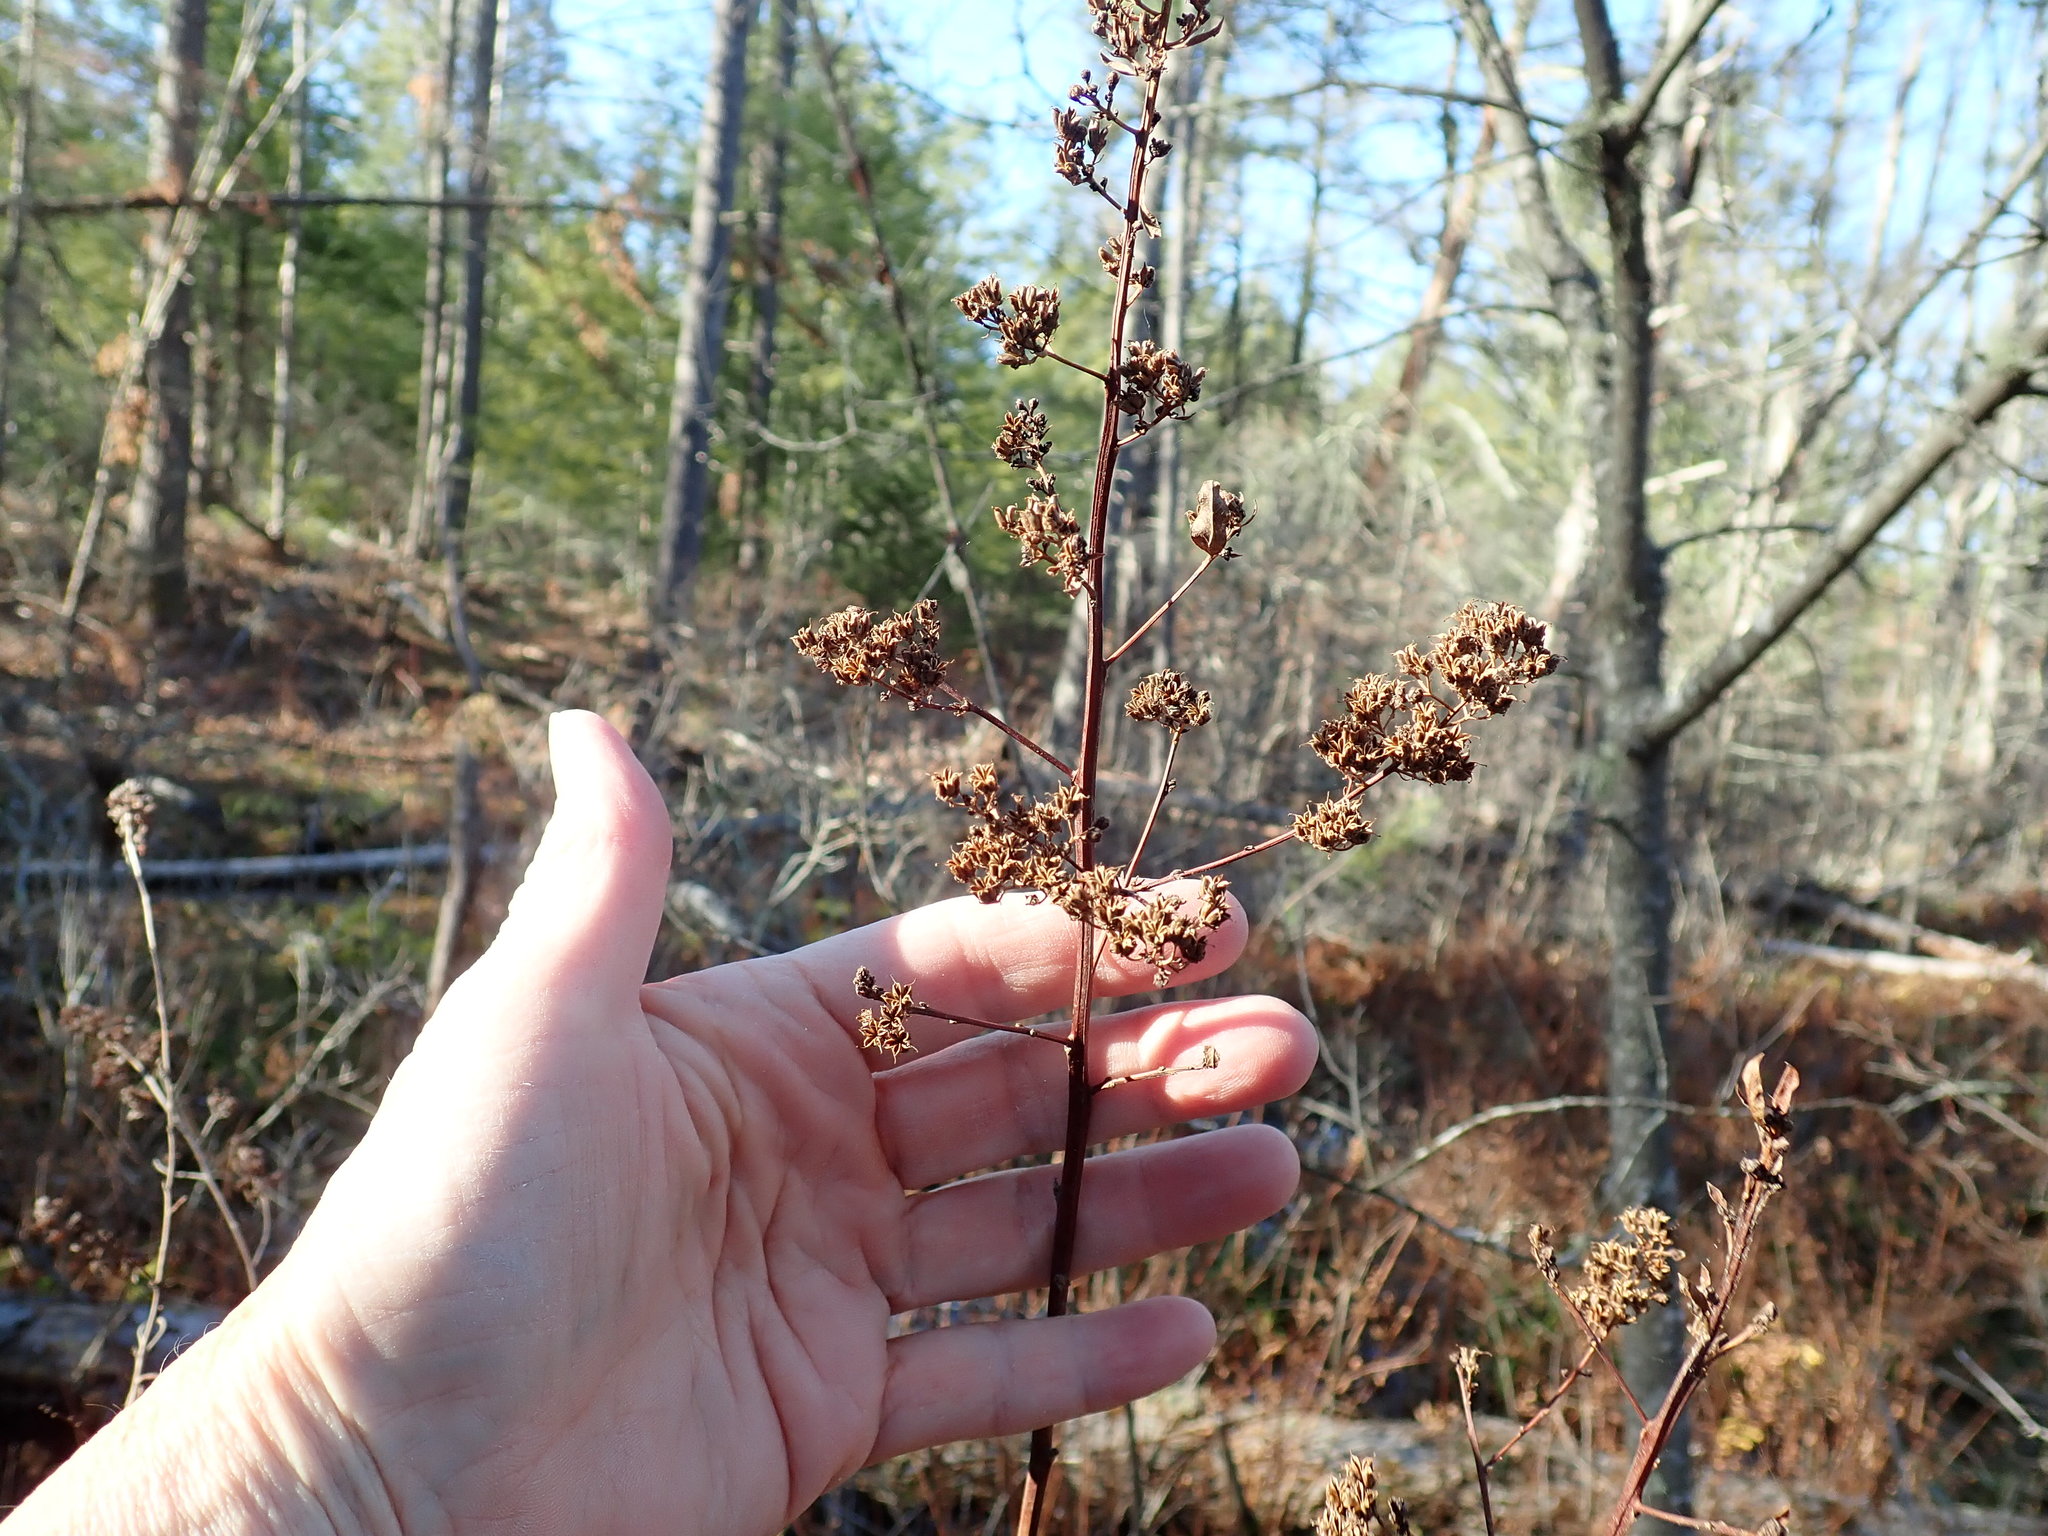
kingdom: Plantae
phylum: Tracheophyta
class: Magnoliopsida
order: Rosales
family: Rosaceae
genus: Spiraea
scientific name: Spiraea alba
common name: Pale bridewort
